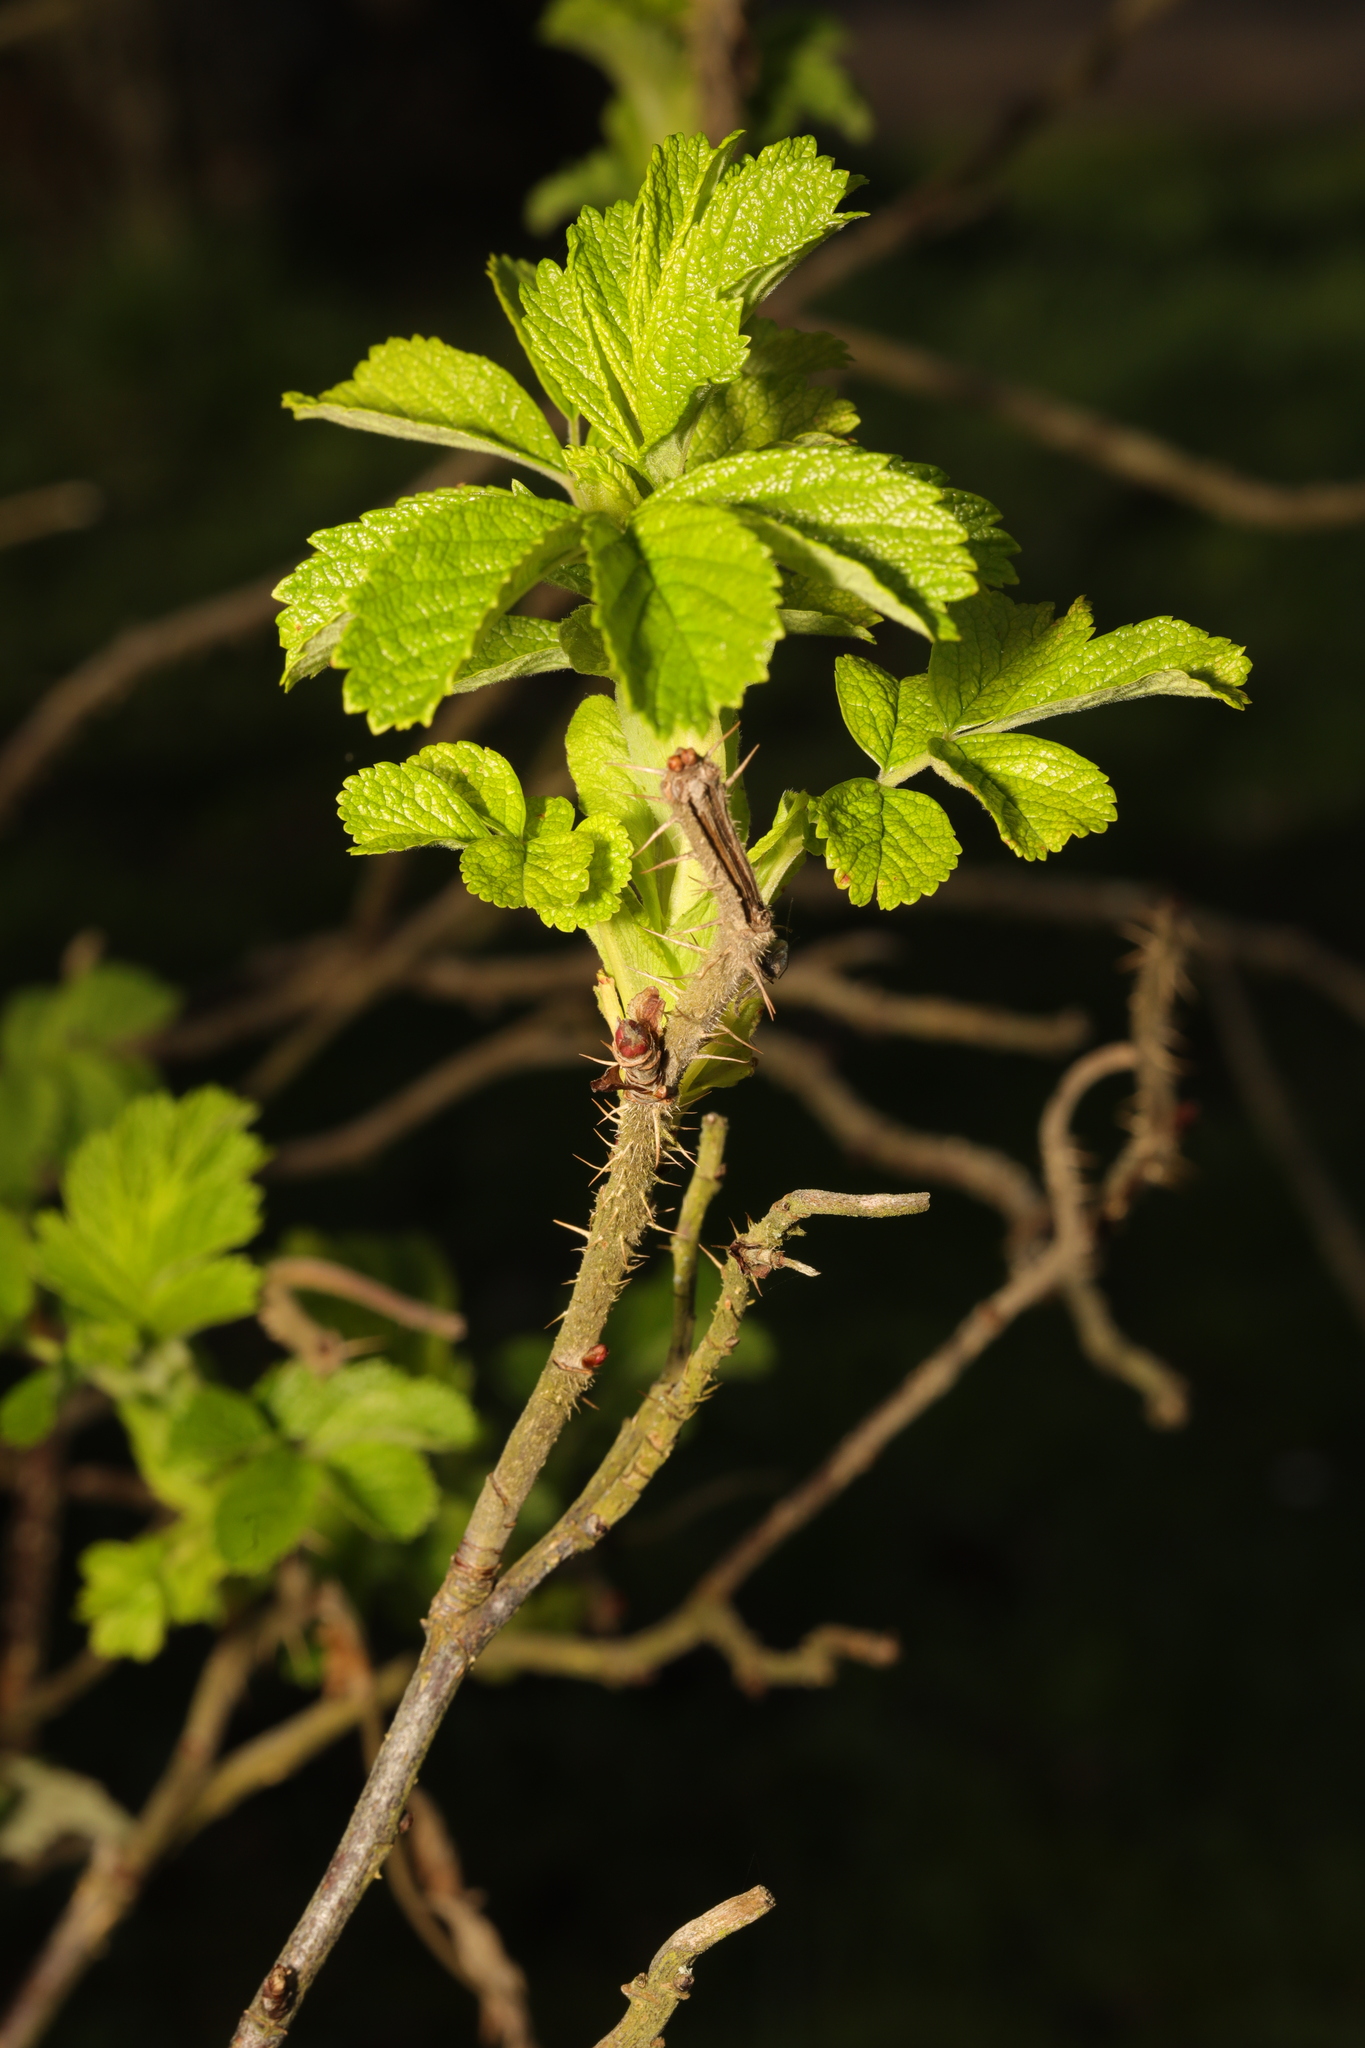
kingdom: Plantae
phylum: Tracheophyta
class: Magnoliopsida
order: Rosales
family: Rosaceae
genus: Rosa
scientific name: Rosa rugosa
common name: Japanese rose
